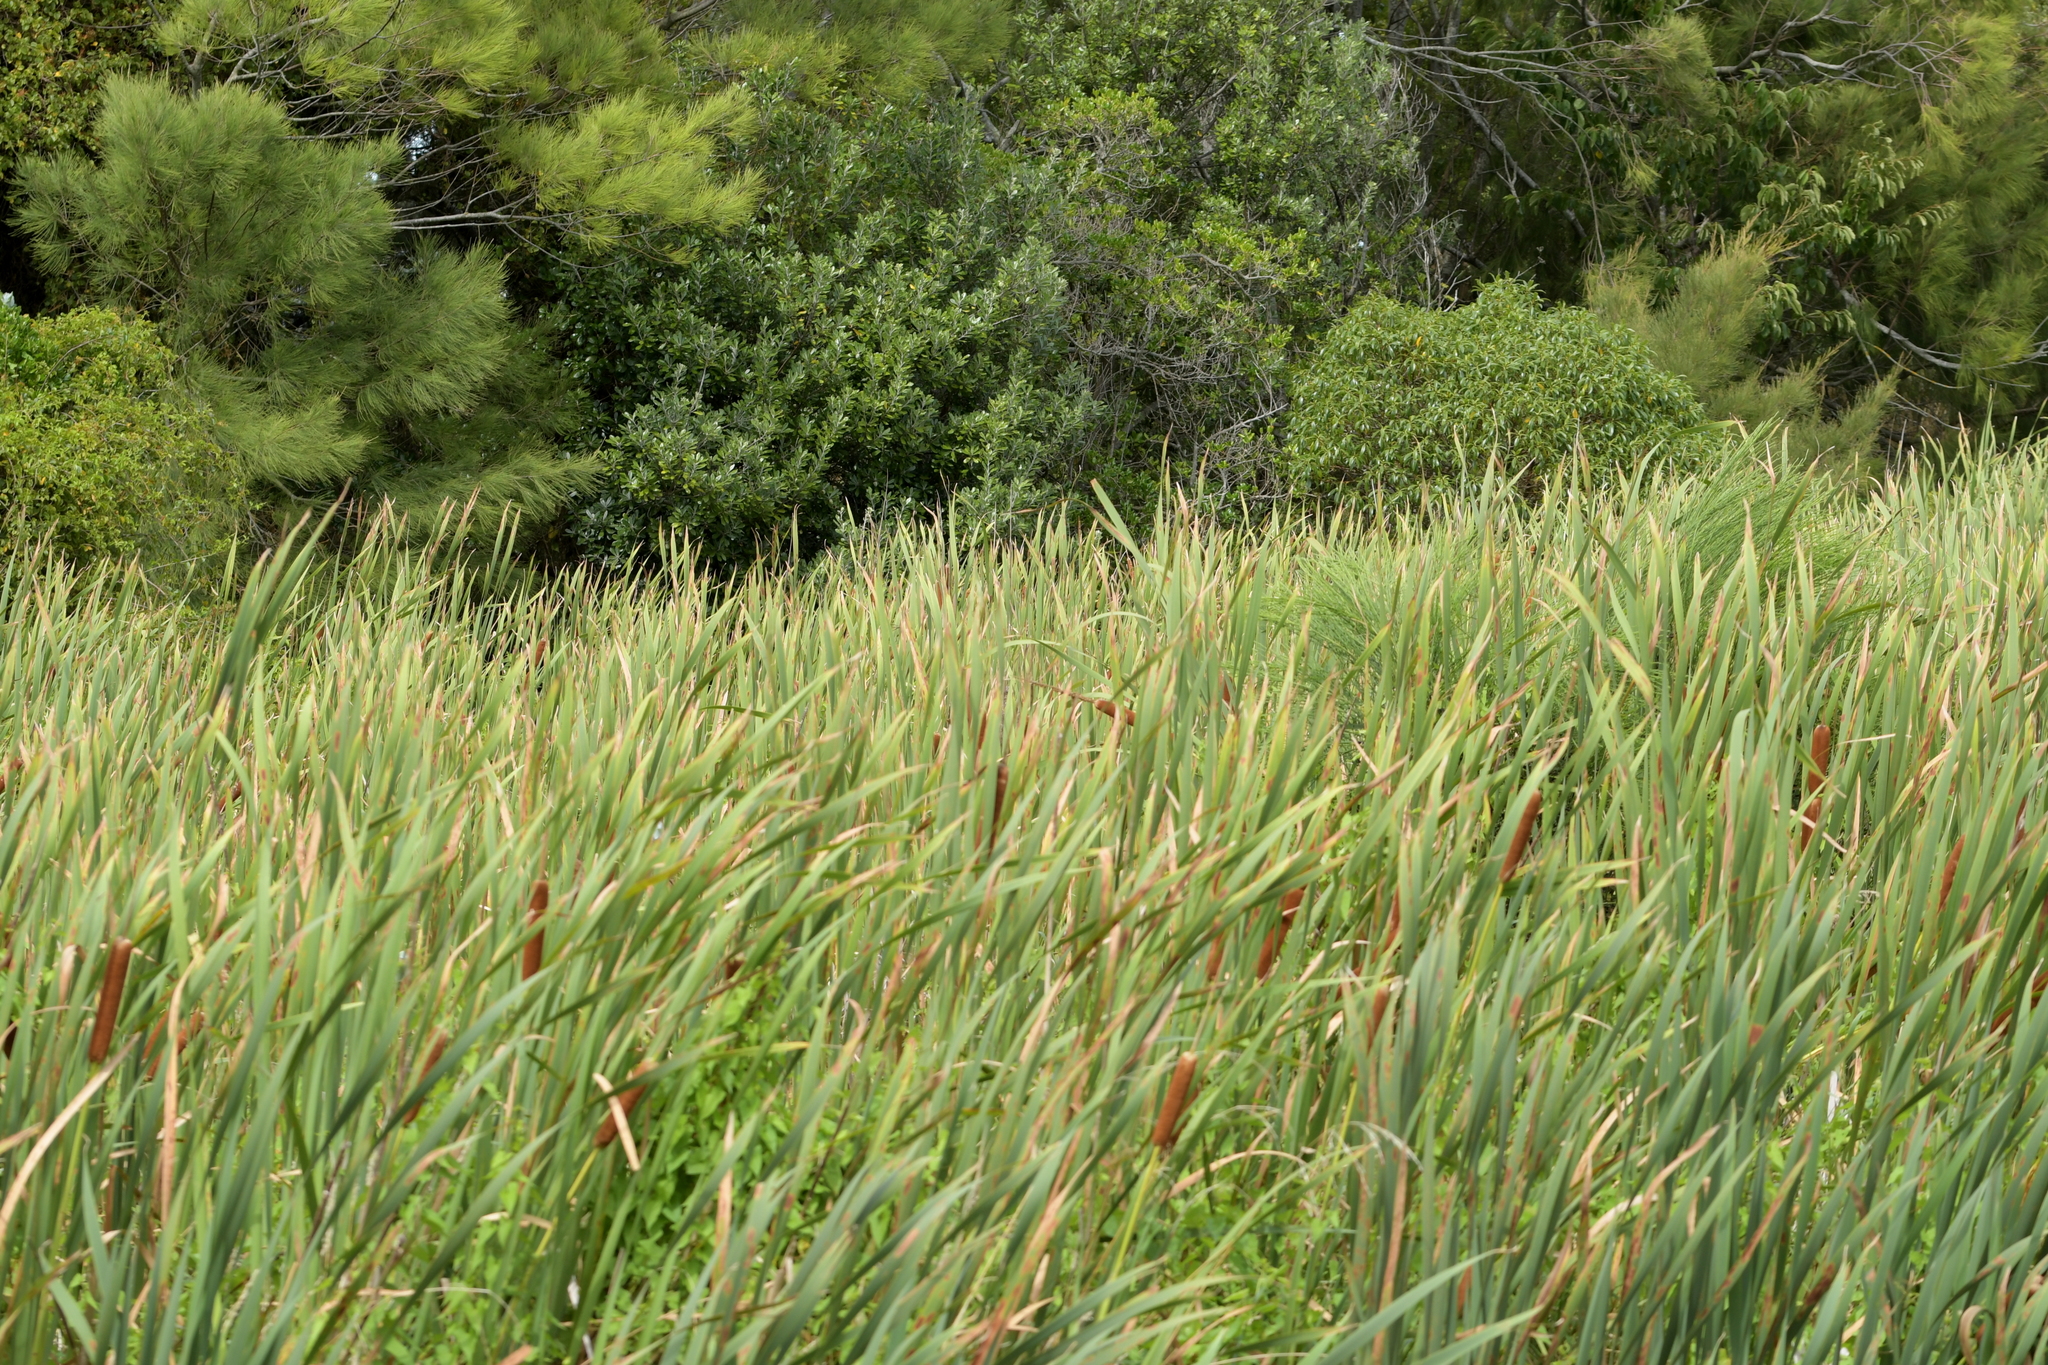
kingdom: Plantae
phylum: Tracheophyta
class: Liliopsida
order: Poales
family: Typhaceae
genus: Typha
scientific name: Typha orientalis
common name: Bullrush
